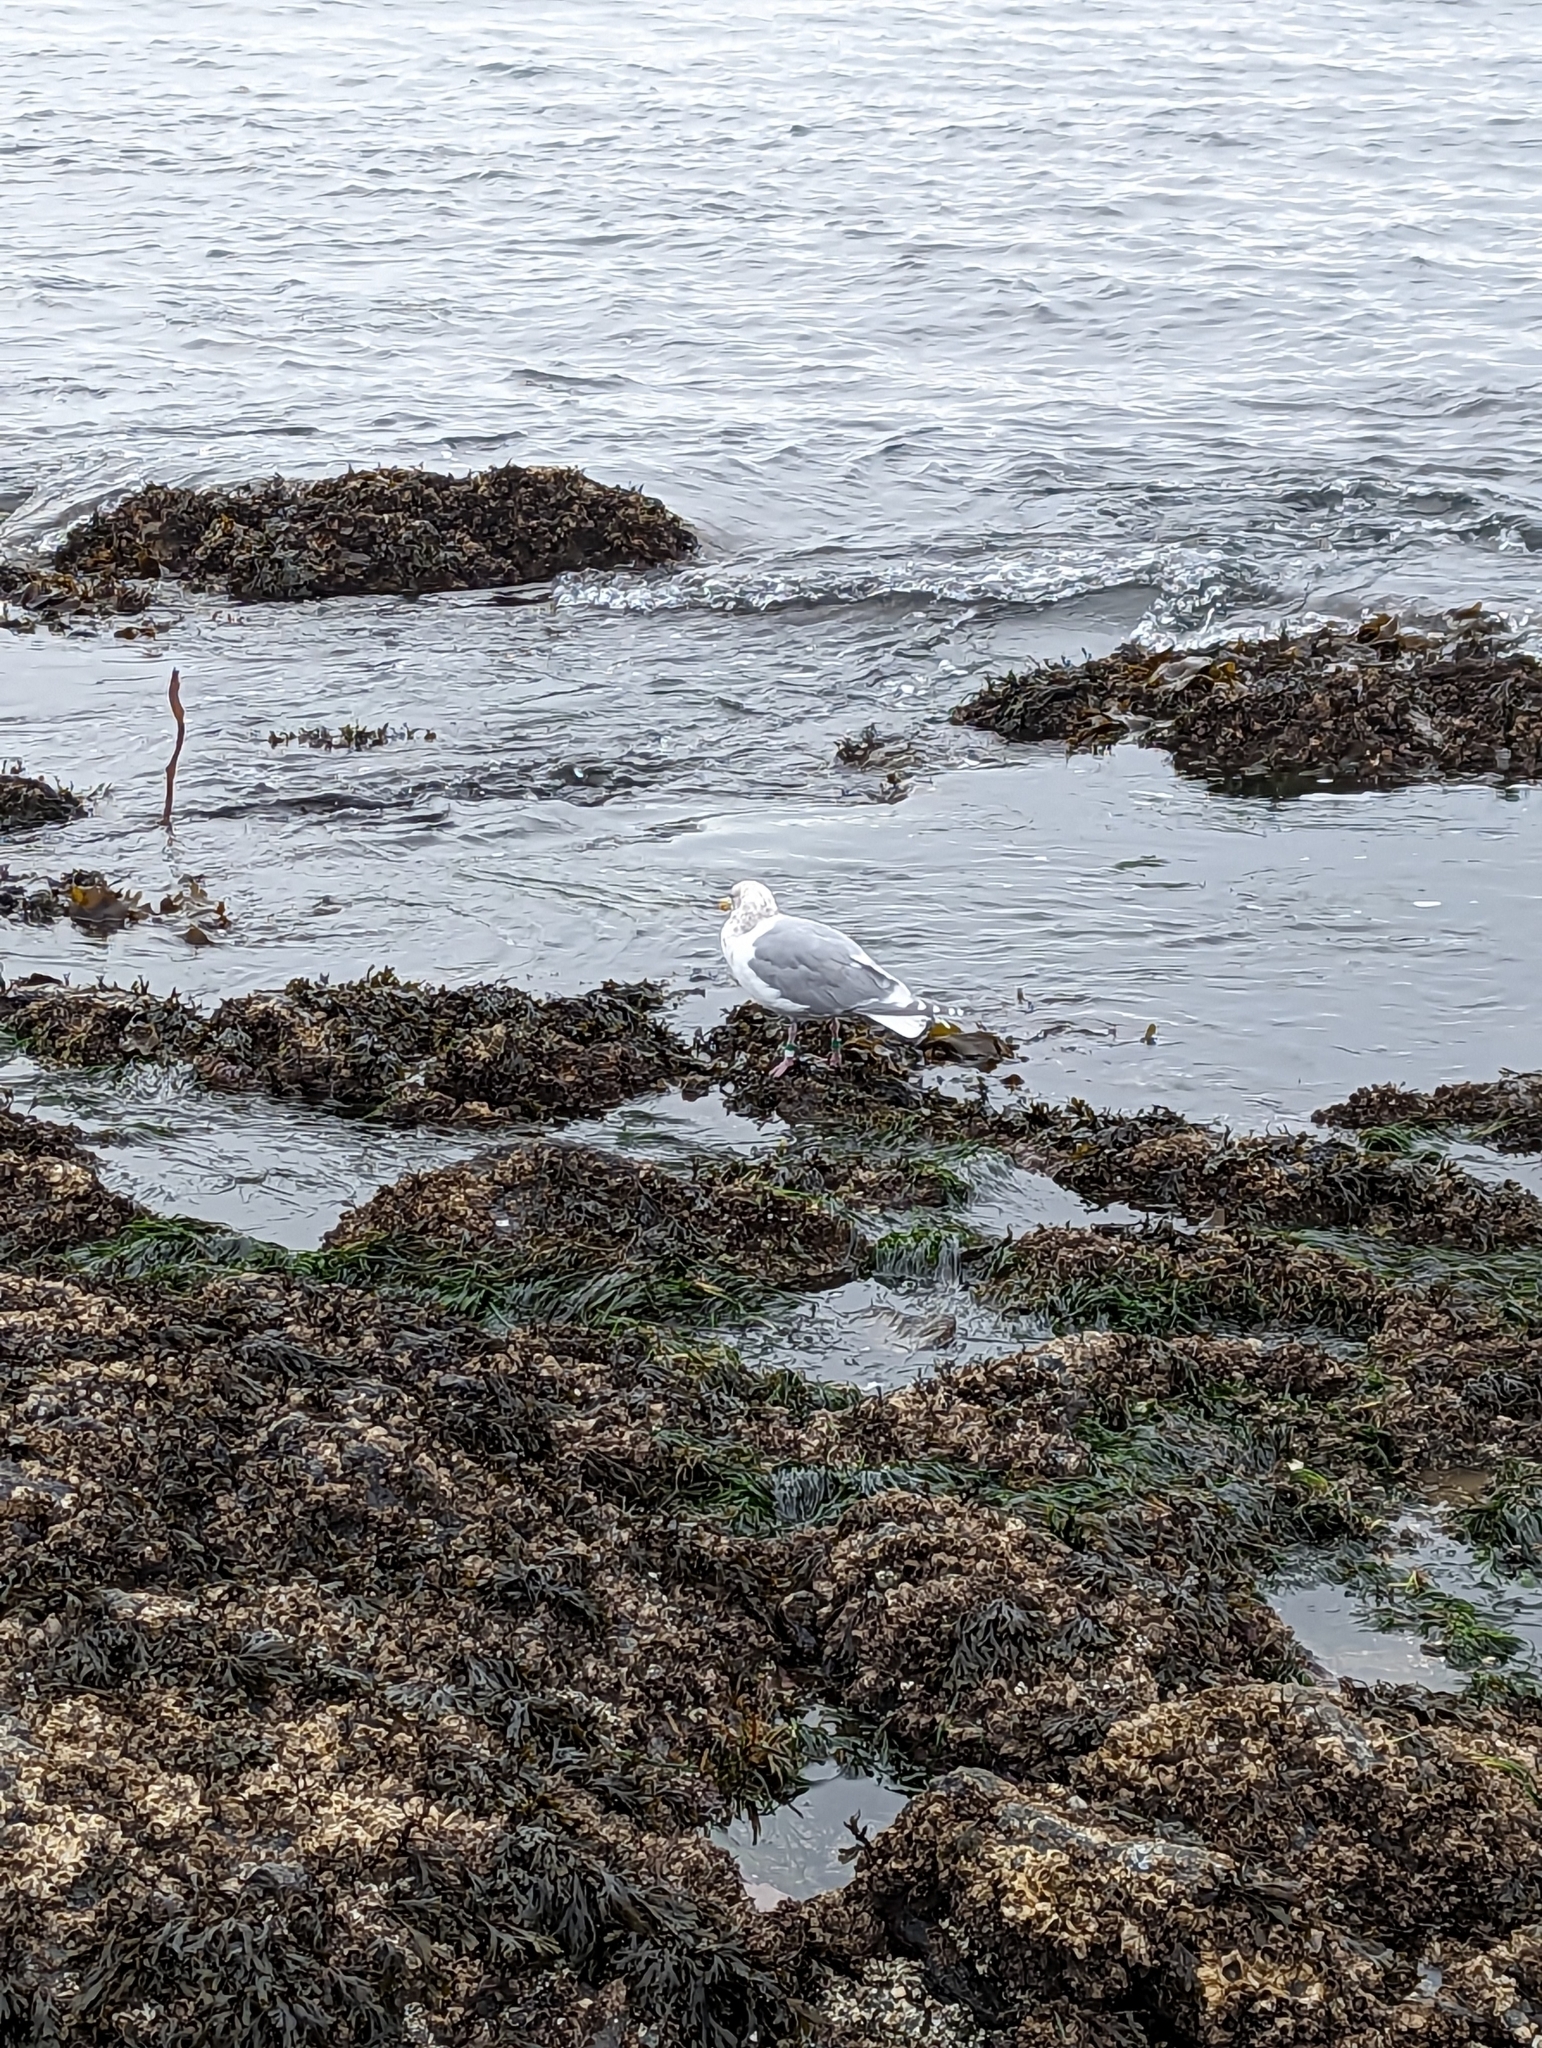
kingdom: Animalia
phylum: Chordata
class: Aves
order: Charadriiformes
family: Laridae
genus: Larus
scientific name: Larus glaucescens
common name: Glaucous-winged gull
